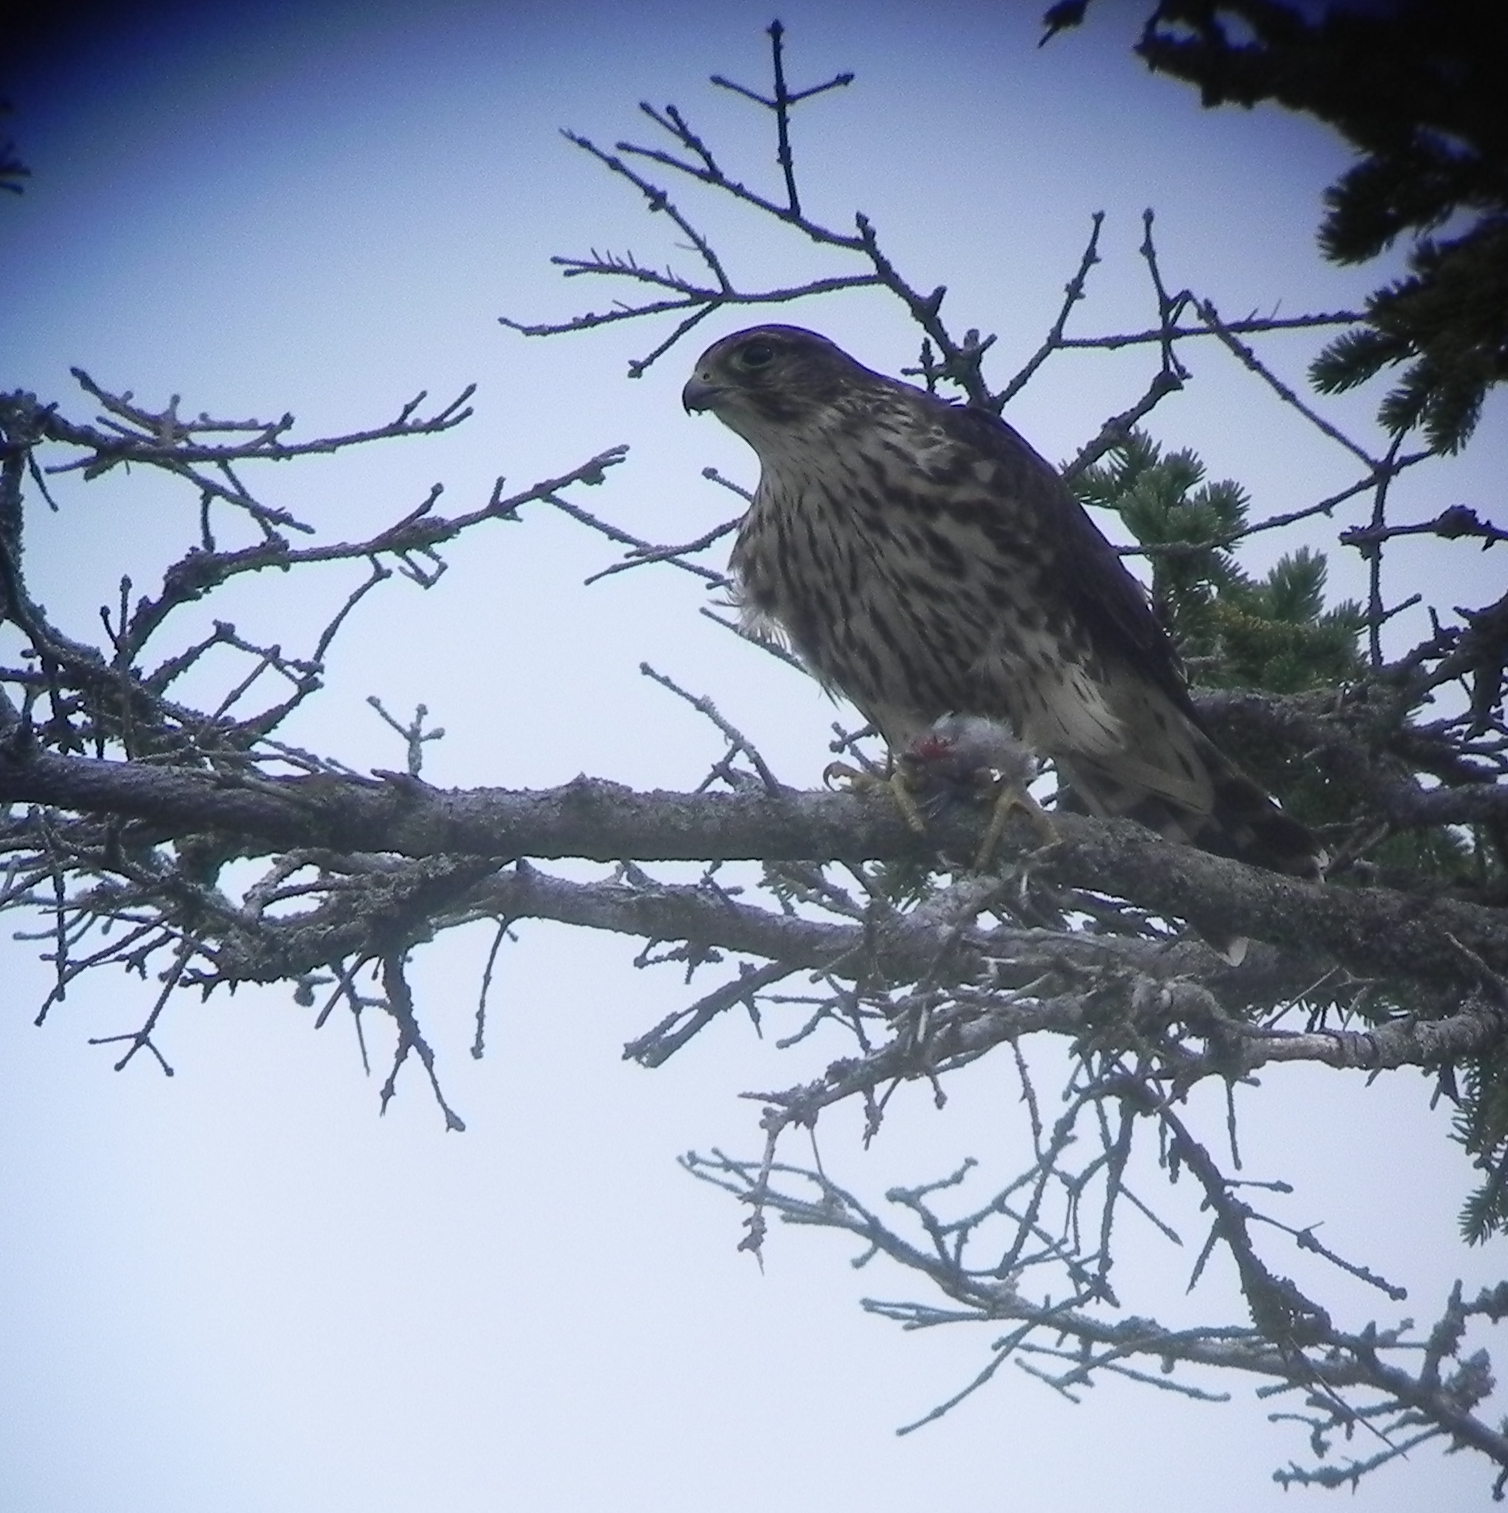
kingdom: Animalia
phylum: Chordata
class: Aves
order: Falconiformes
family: Falconidae
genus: Falco
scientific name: Falco columbarius
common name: Merlin
